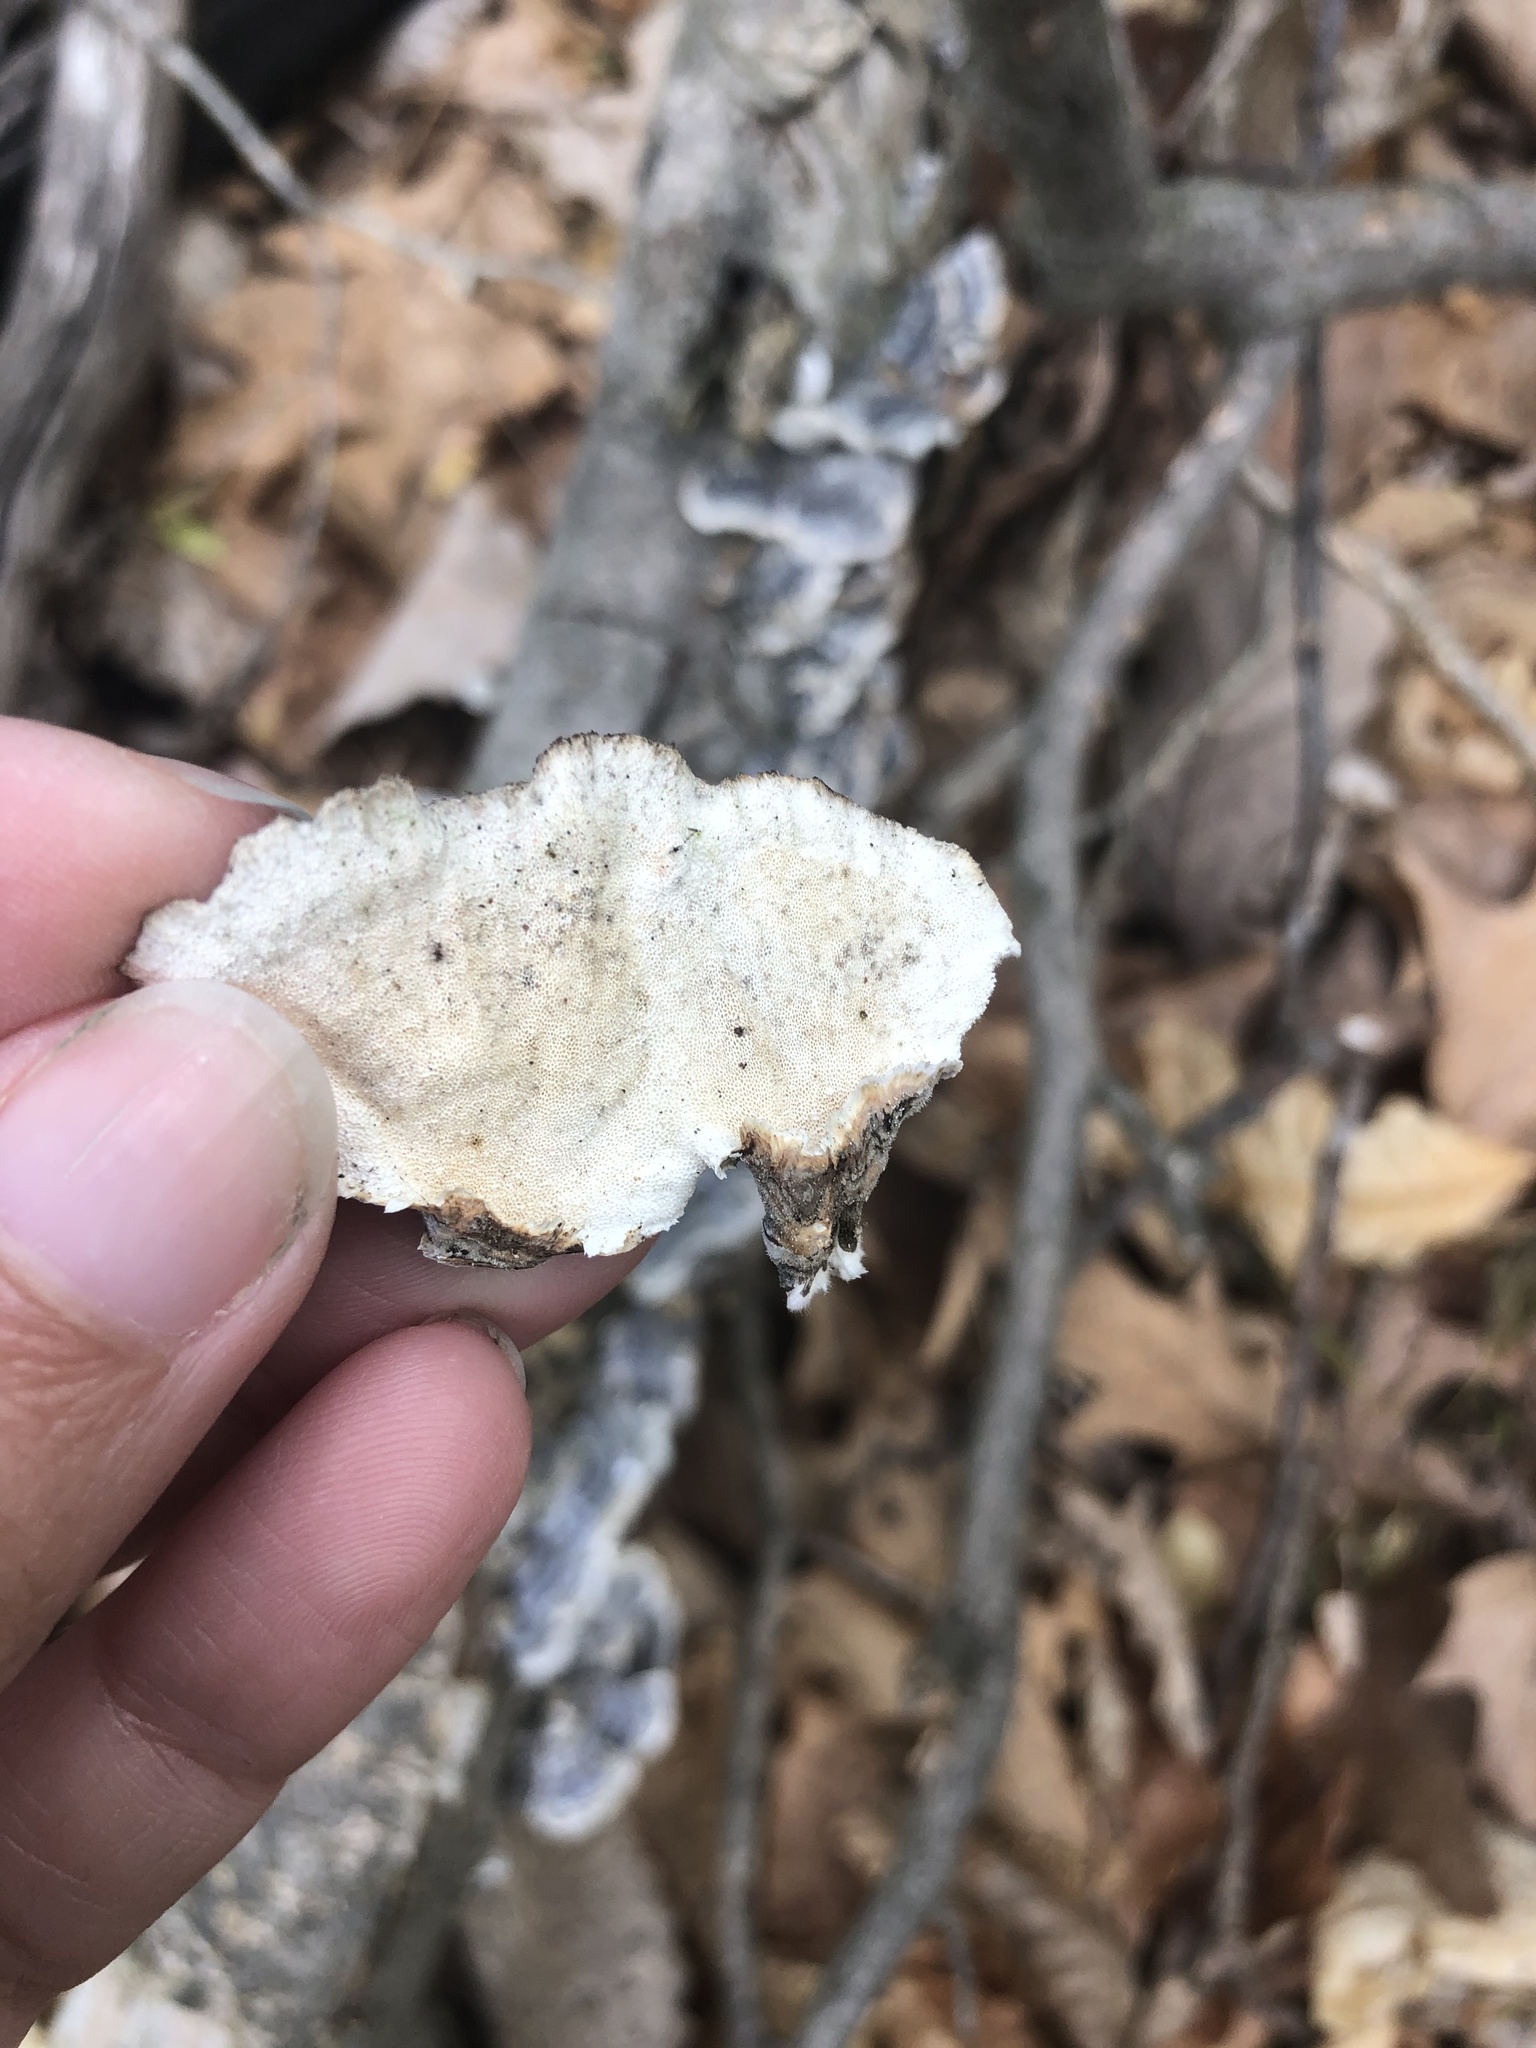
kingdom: Fungi
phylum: Basidiomycota
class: Agaricomycetes
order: Polyporales
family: Polyporaceae
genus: Trametes
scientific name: Trametes versicolor
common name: Turkeytail
